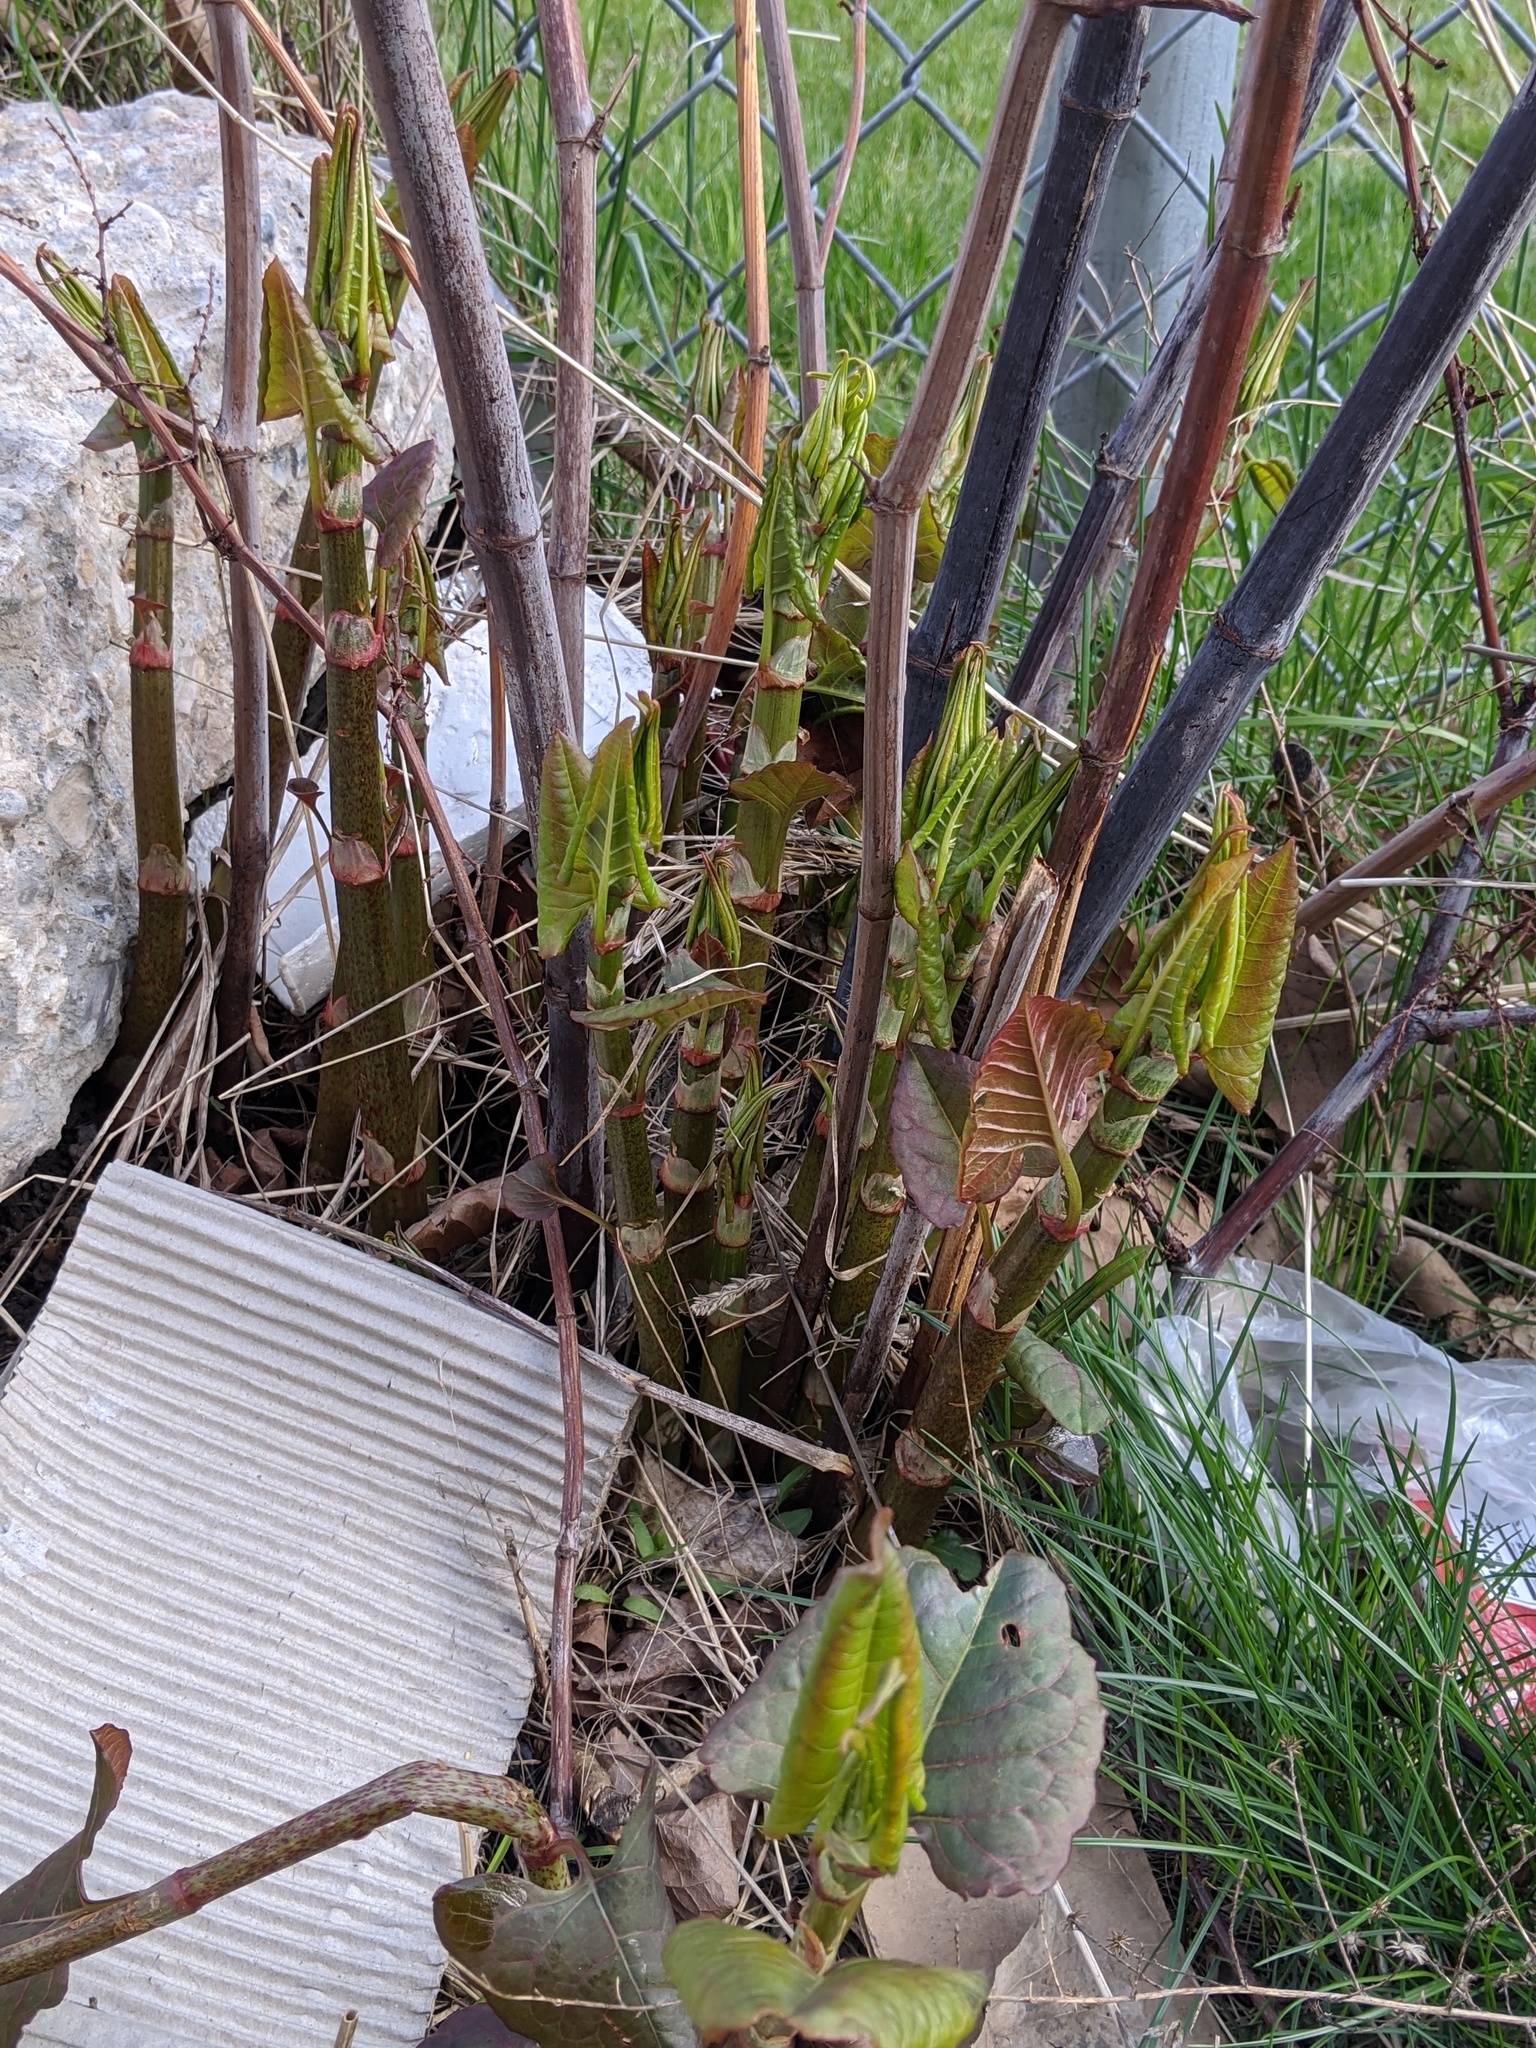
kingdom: Plantae
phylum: Tracheophyta
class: Magnoliopsida
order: Caryophyllales
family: Polygonaceae
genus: Reynoutria
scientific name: Reynoutria japonica
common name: Japanese knotweed
